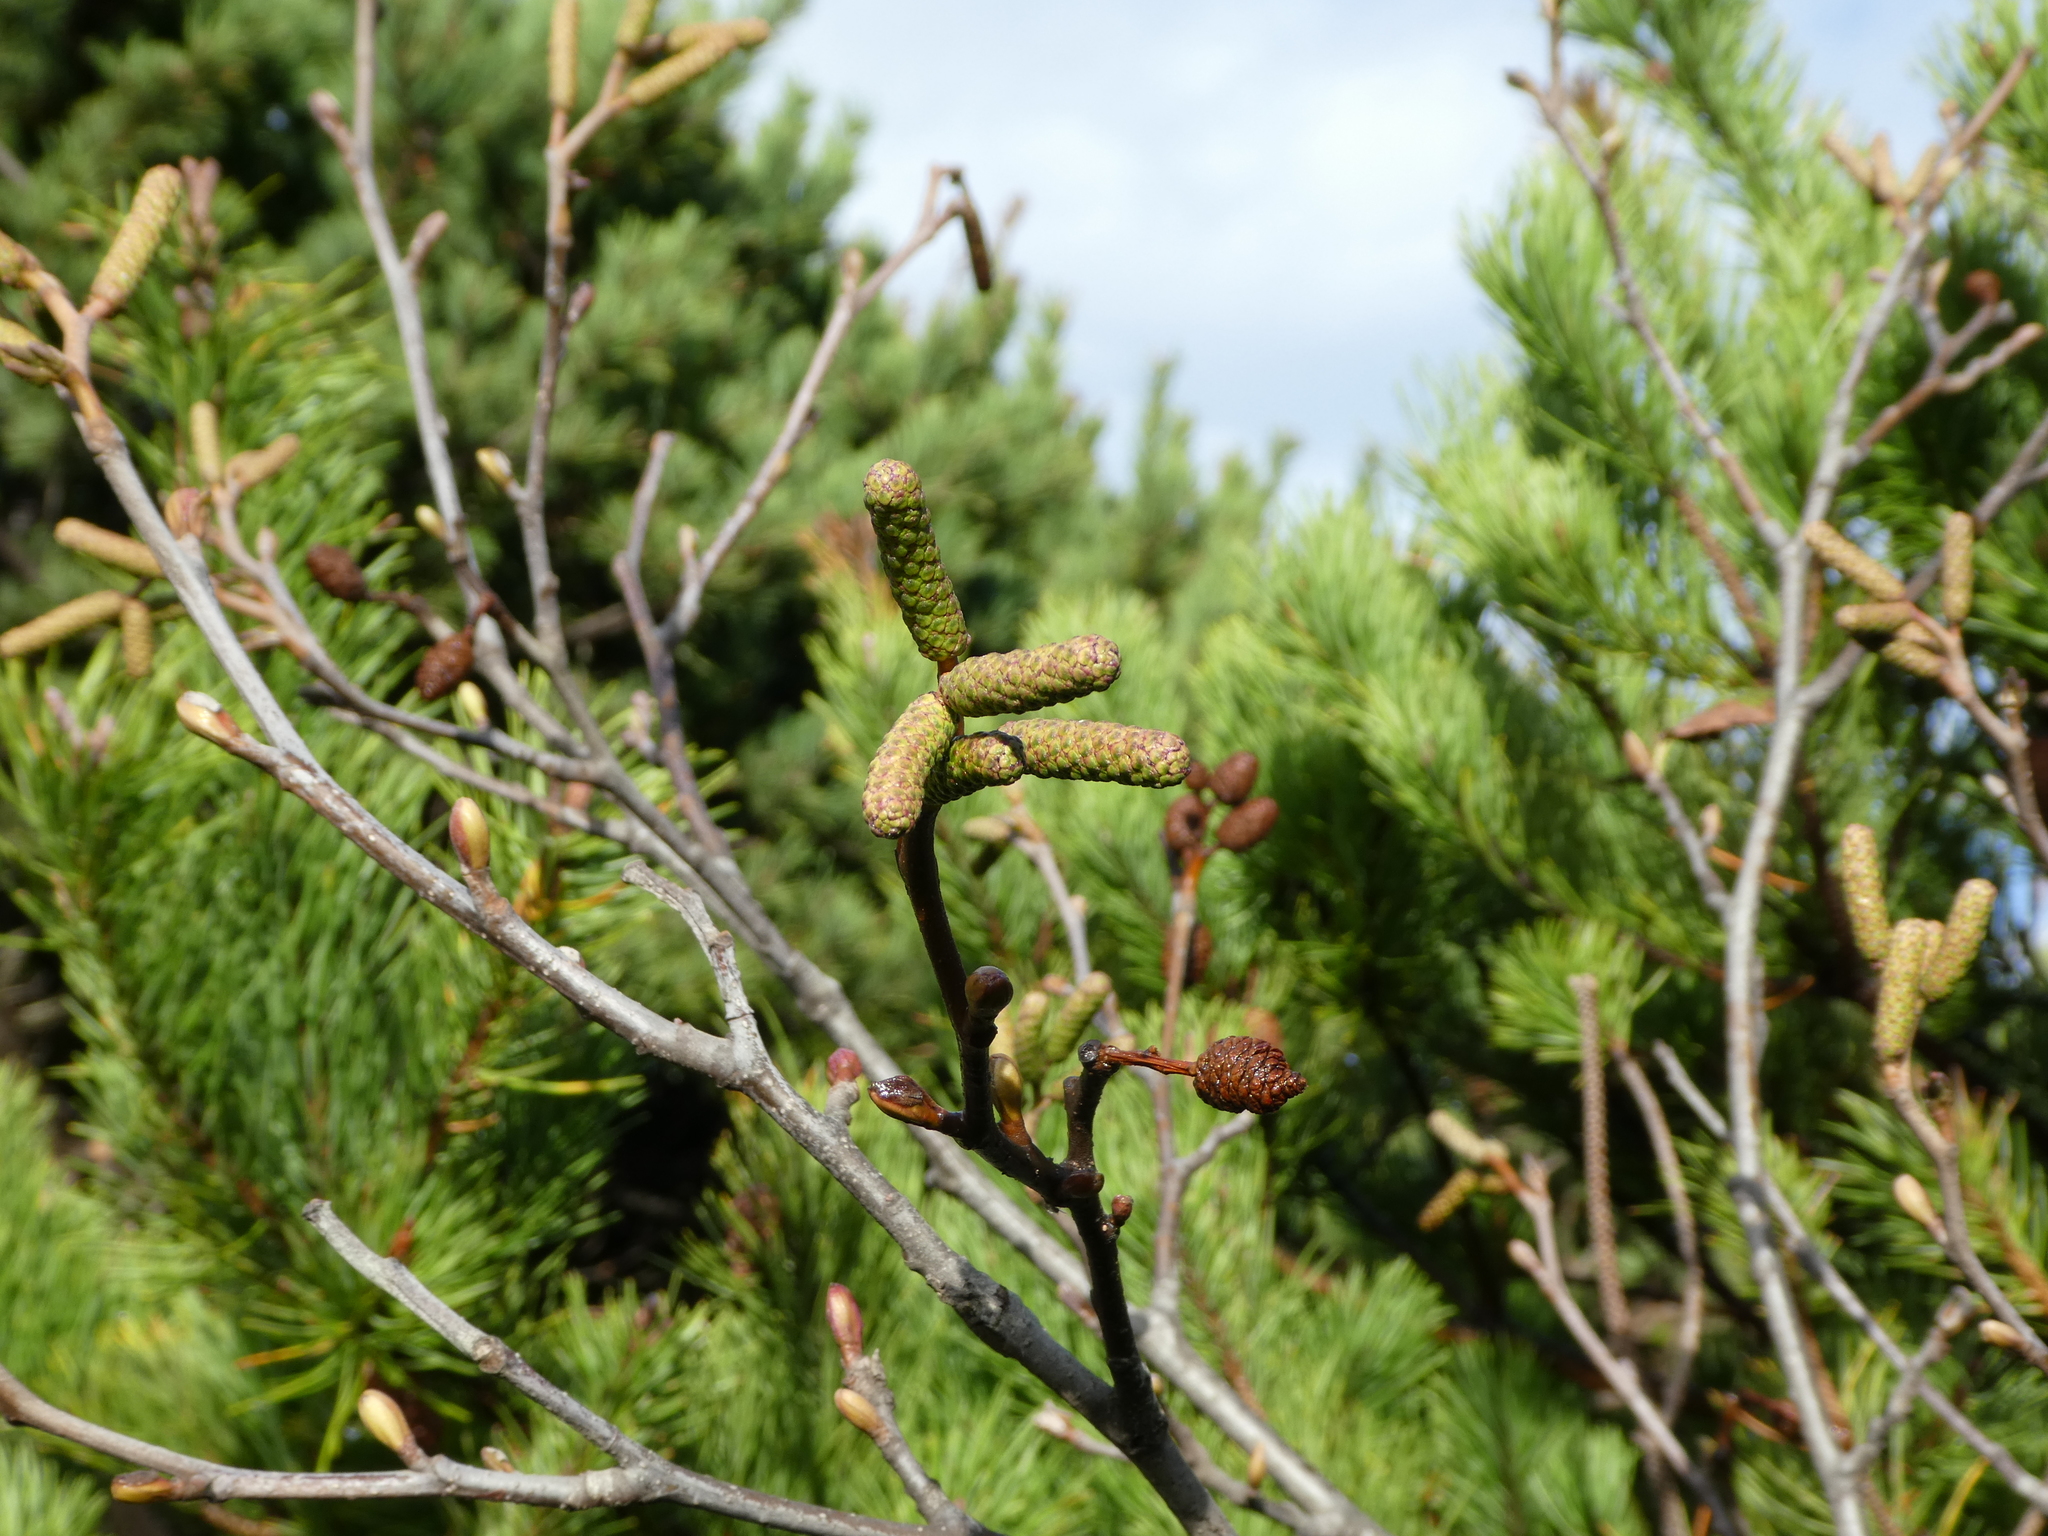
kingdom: Plantae
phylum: Tracheophyta
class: Magnoliopsida
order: Fagales
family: Betulaceae
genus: Alnus
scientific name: Alnus rubra
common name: Red alder
